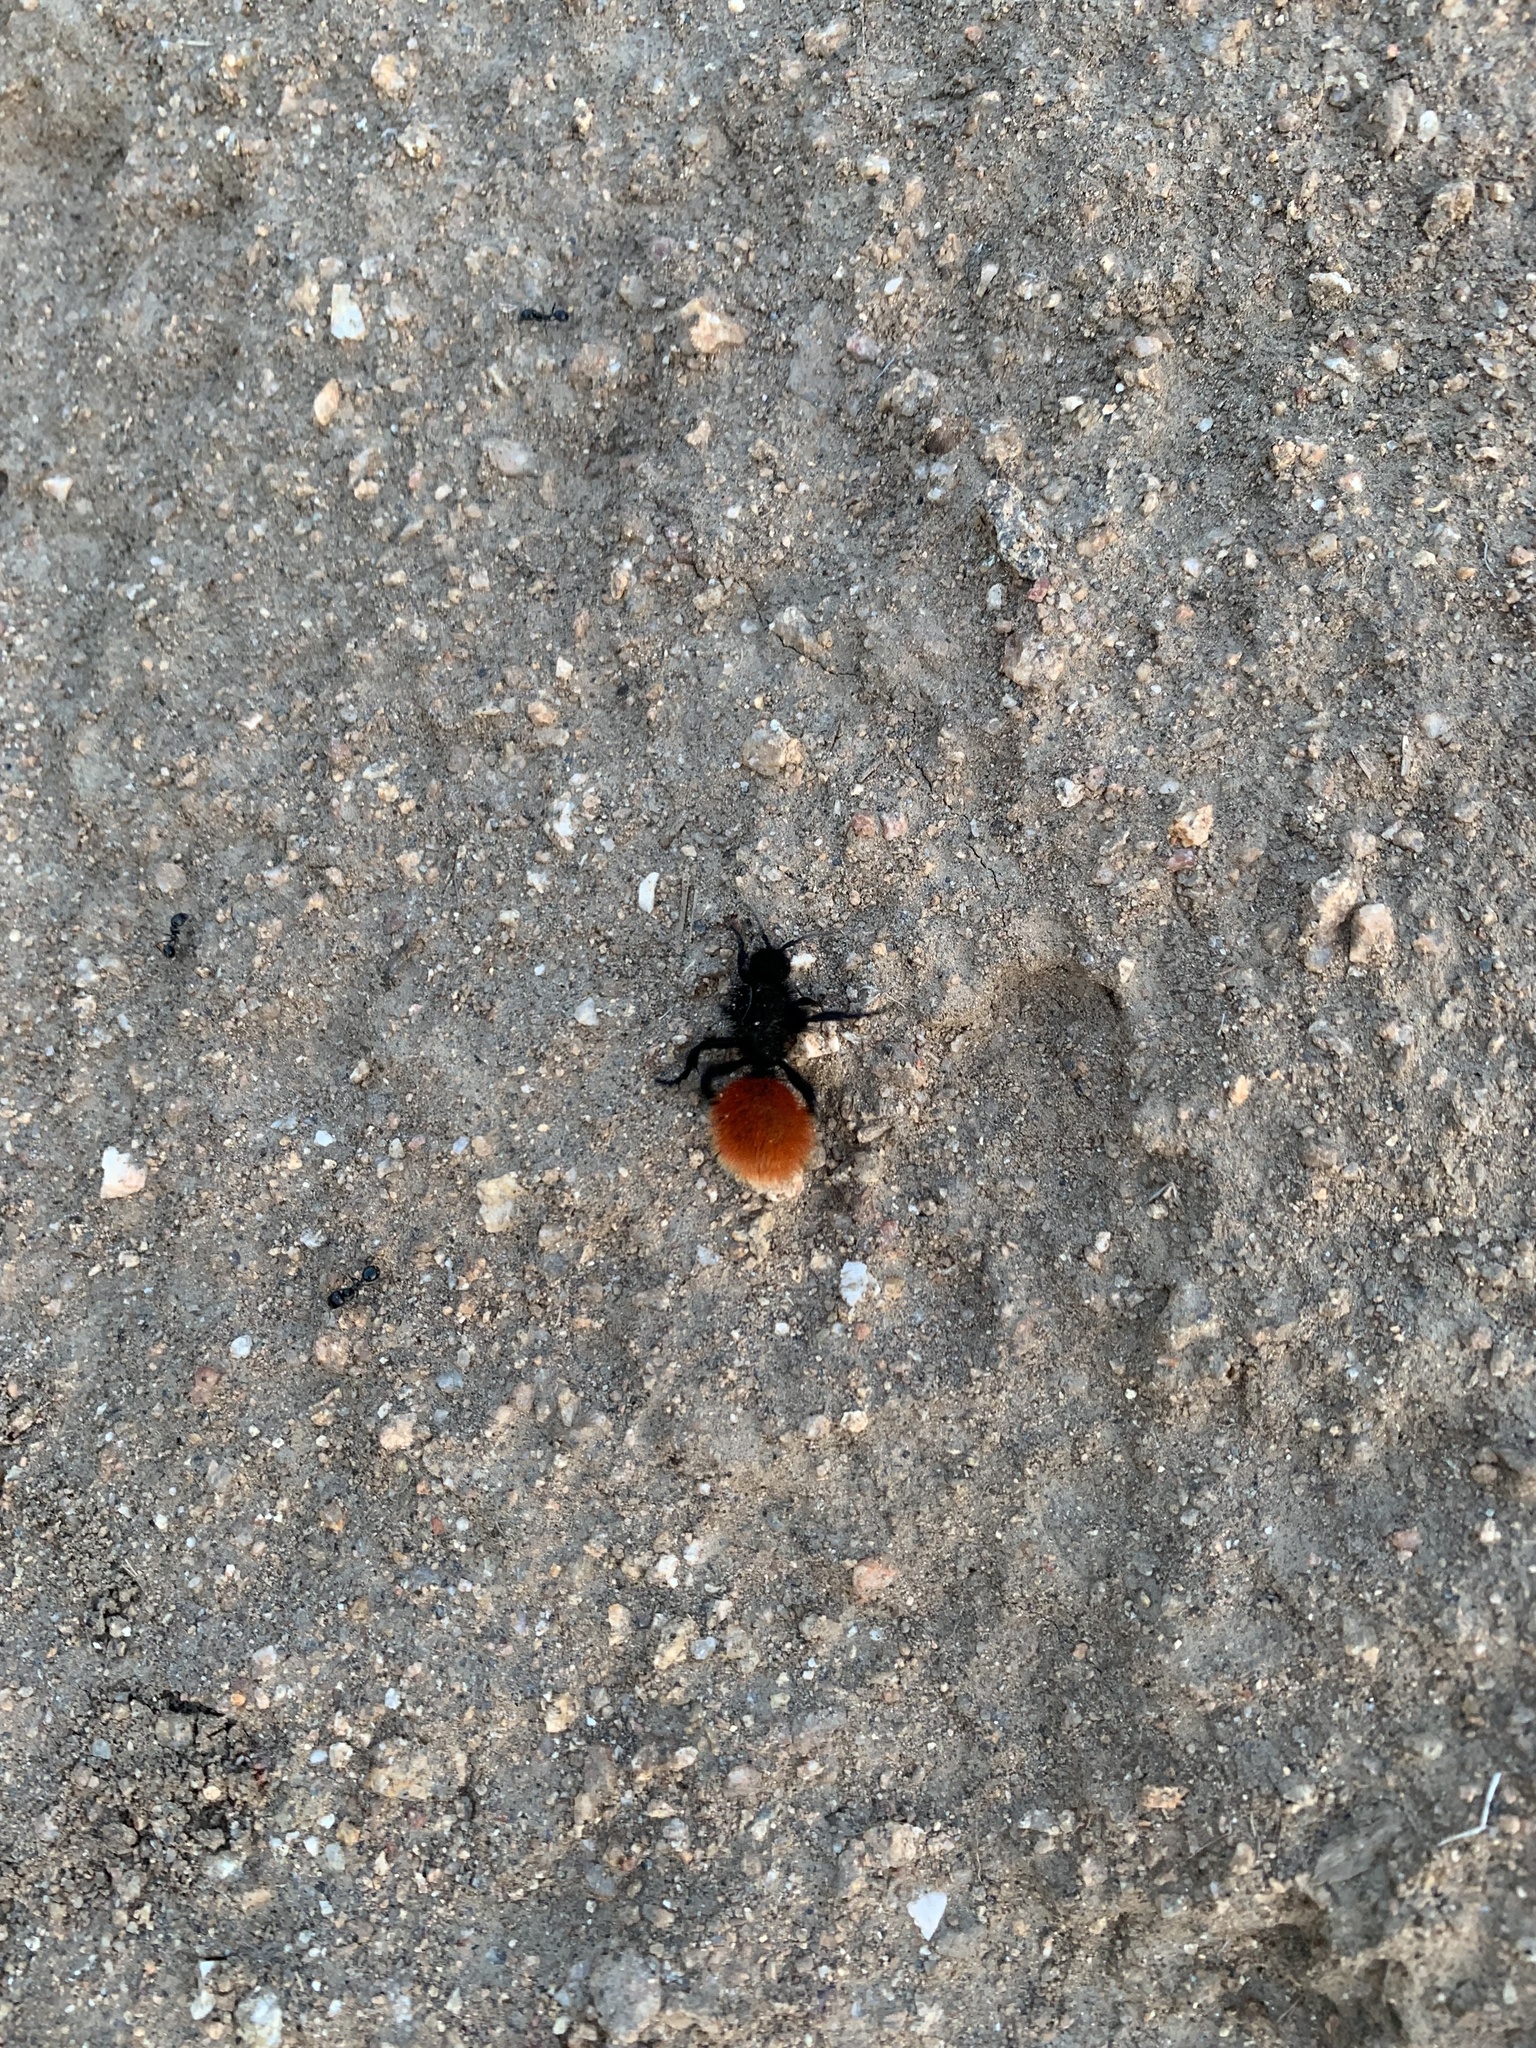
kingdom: Animalia
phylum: Arthropoda
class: Insecta
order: Hymenoptera
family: Mutillidae
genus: Dasymutilla
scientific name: Dasymutilla magnifica
